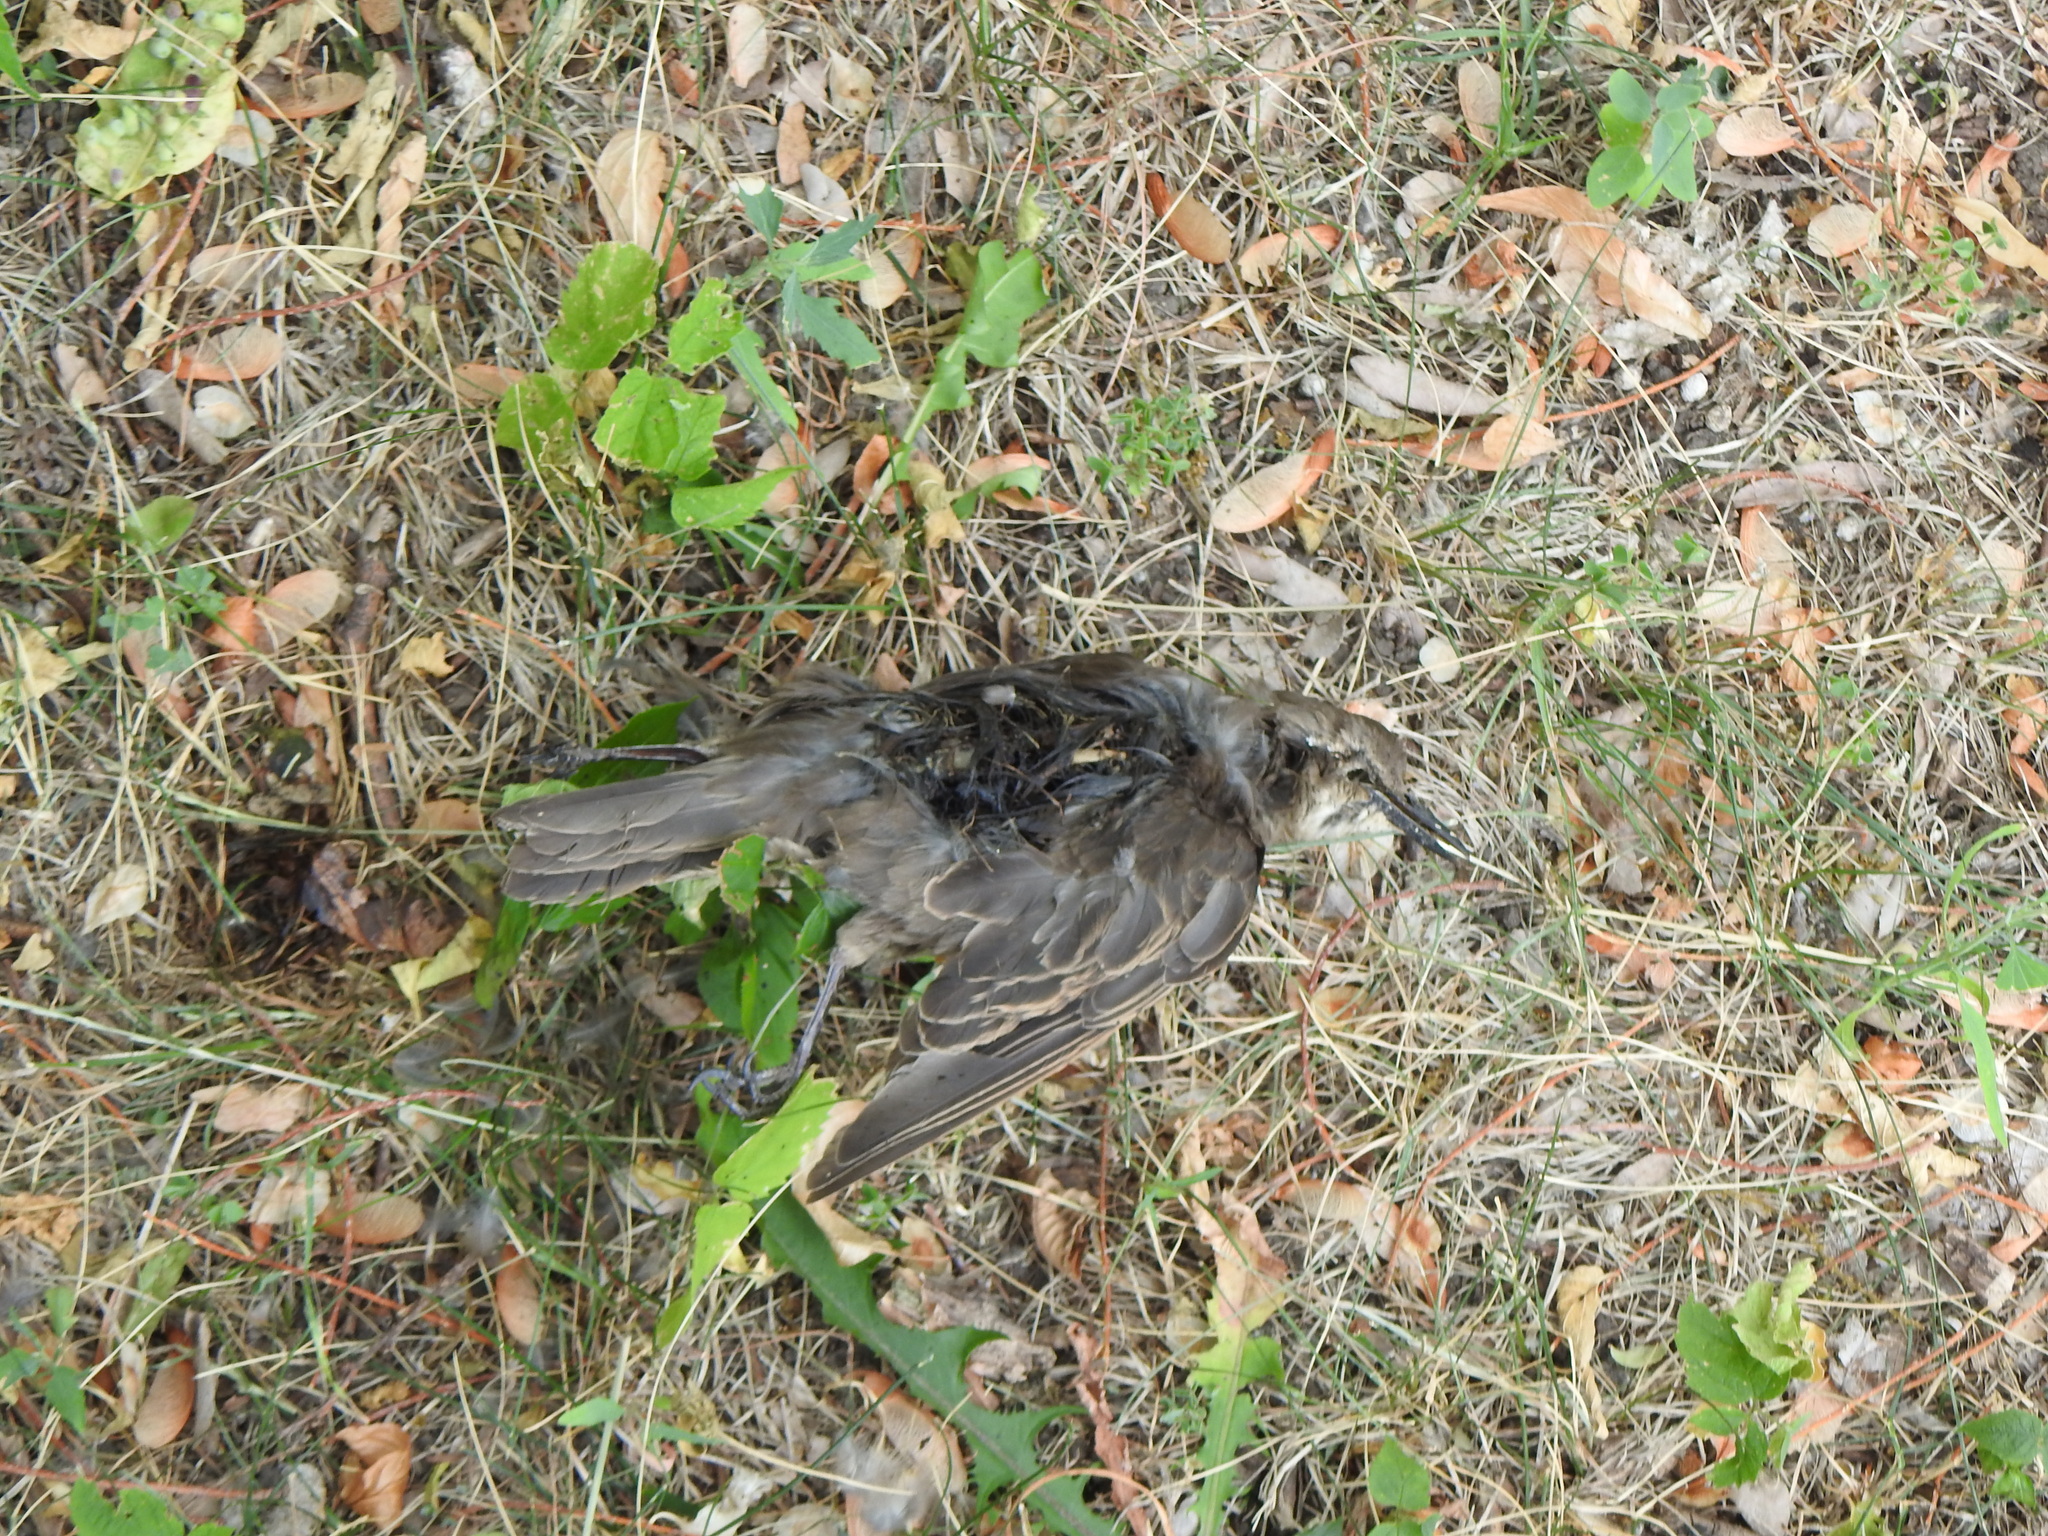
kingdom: Animalia
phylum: Chordata
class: Aves
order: Passeriformes
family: Sturnidae
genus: Sturnus
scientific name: Sturnus vulgaris
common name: Common starling
